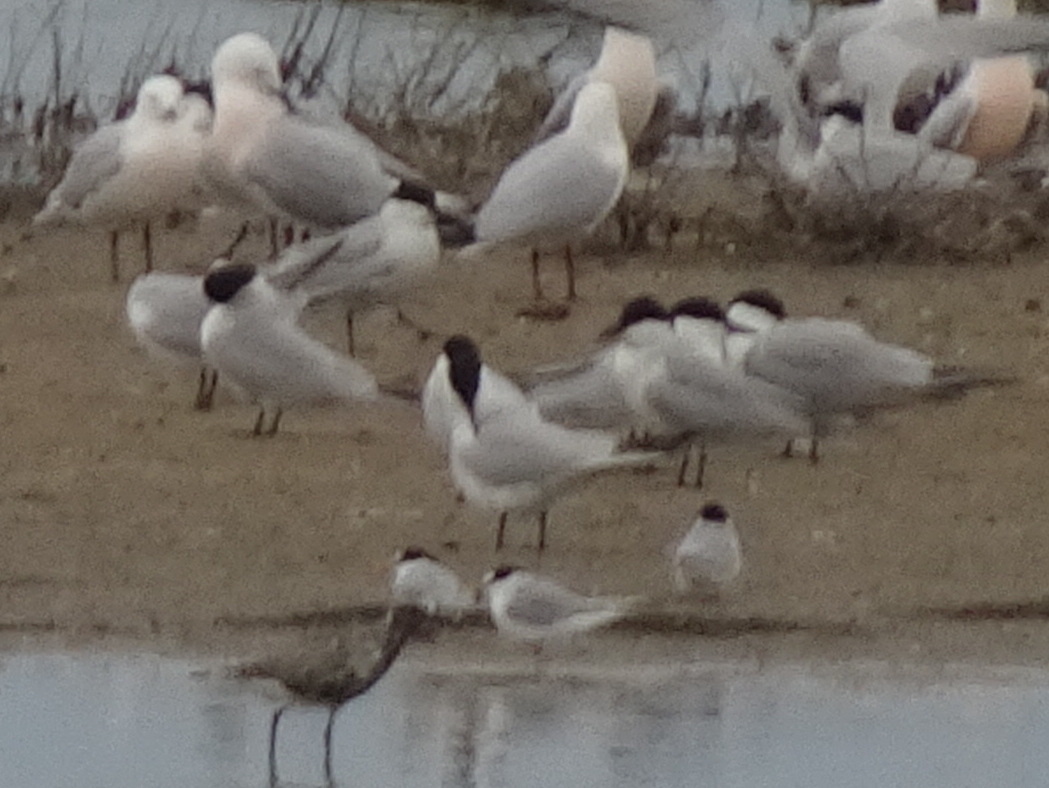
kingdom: Animalia
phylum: Chordata
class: Aves
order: Charadriiformes
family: Laridae
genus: Gelochelidon
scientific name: Gelochelidon nilotica
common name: Gull-billed tern
